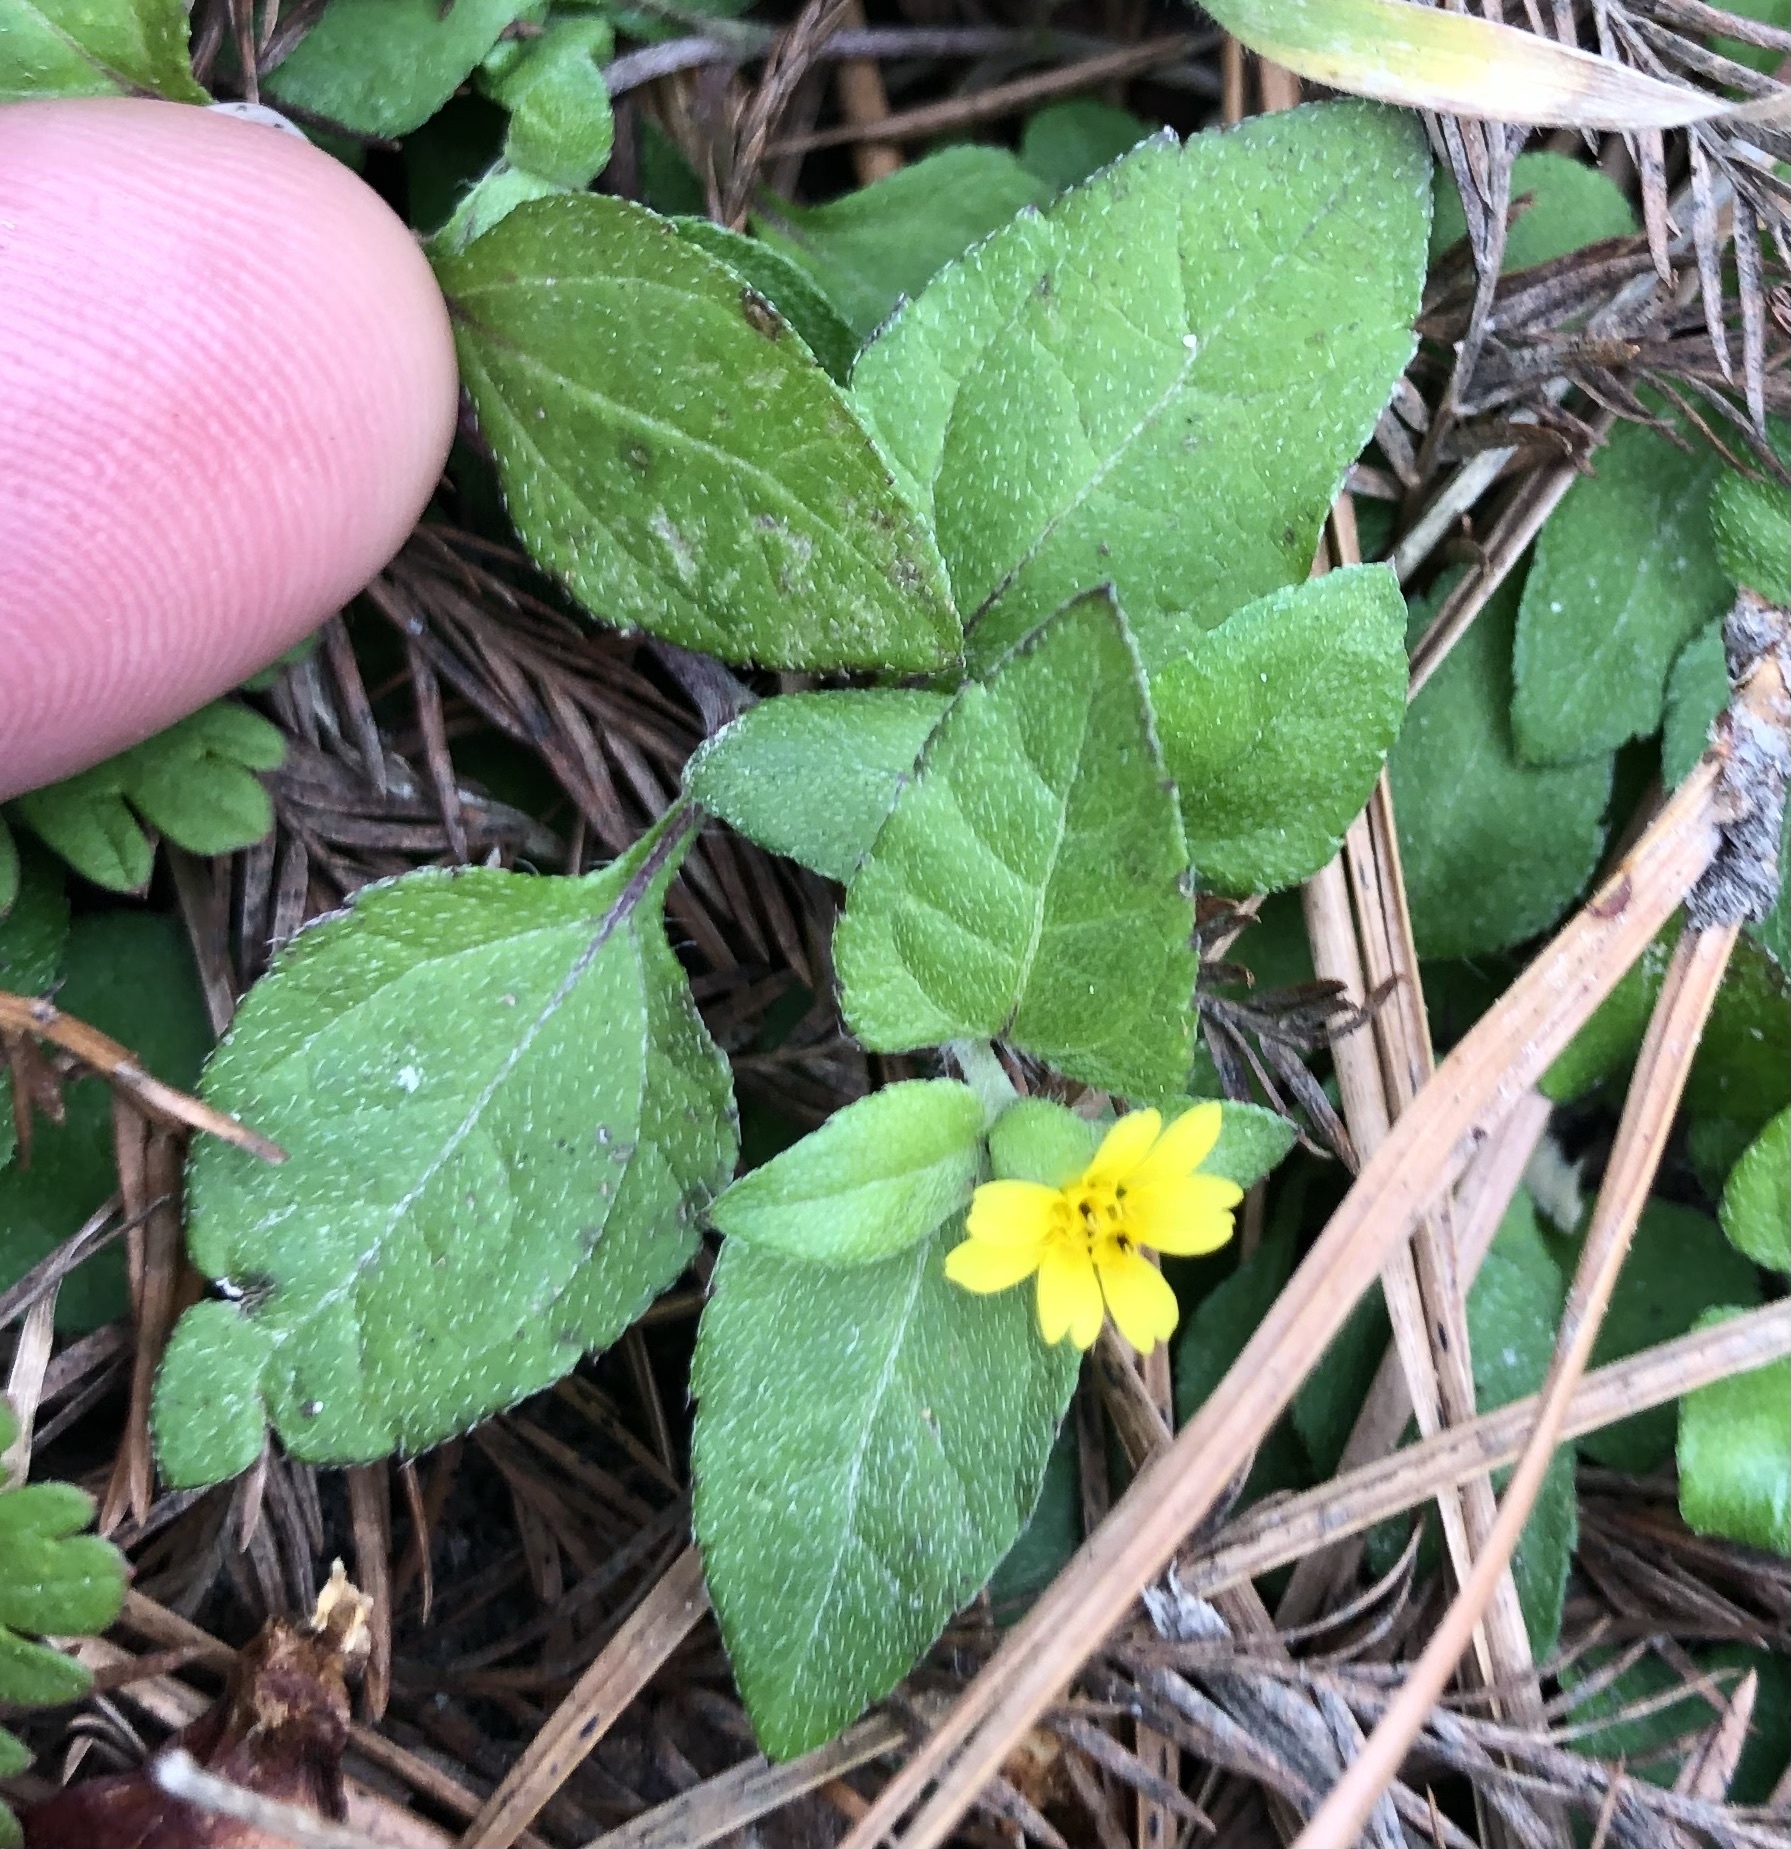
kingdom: Plantae
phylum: Tracheophyta
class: Magnoliopsida
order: Asterales
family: Asteraceae
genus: Calyptocarpus
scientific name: Calyptocarpus vialis
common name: Straggler daisy
